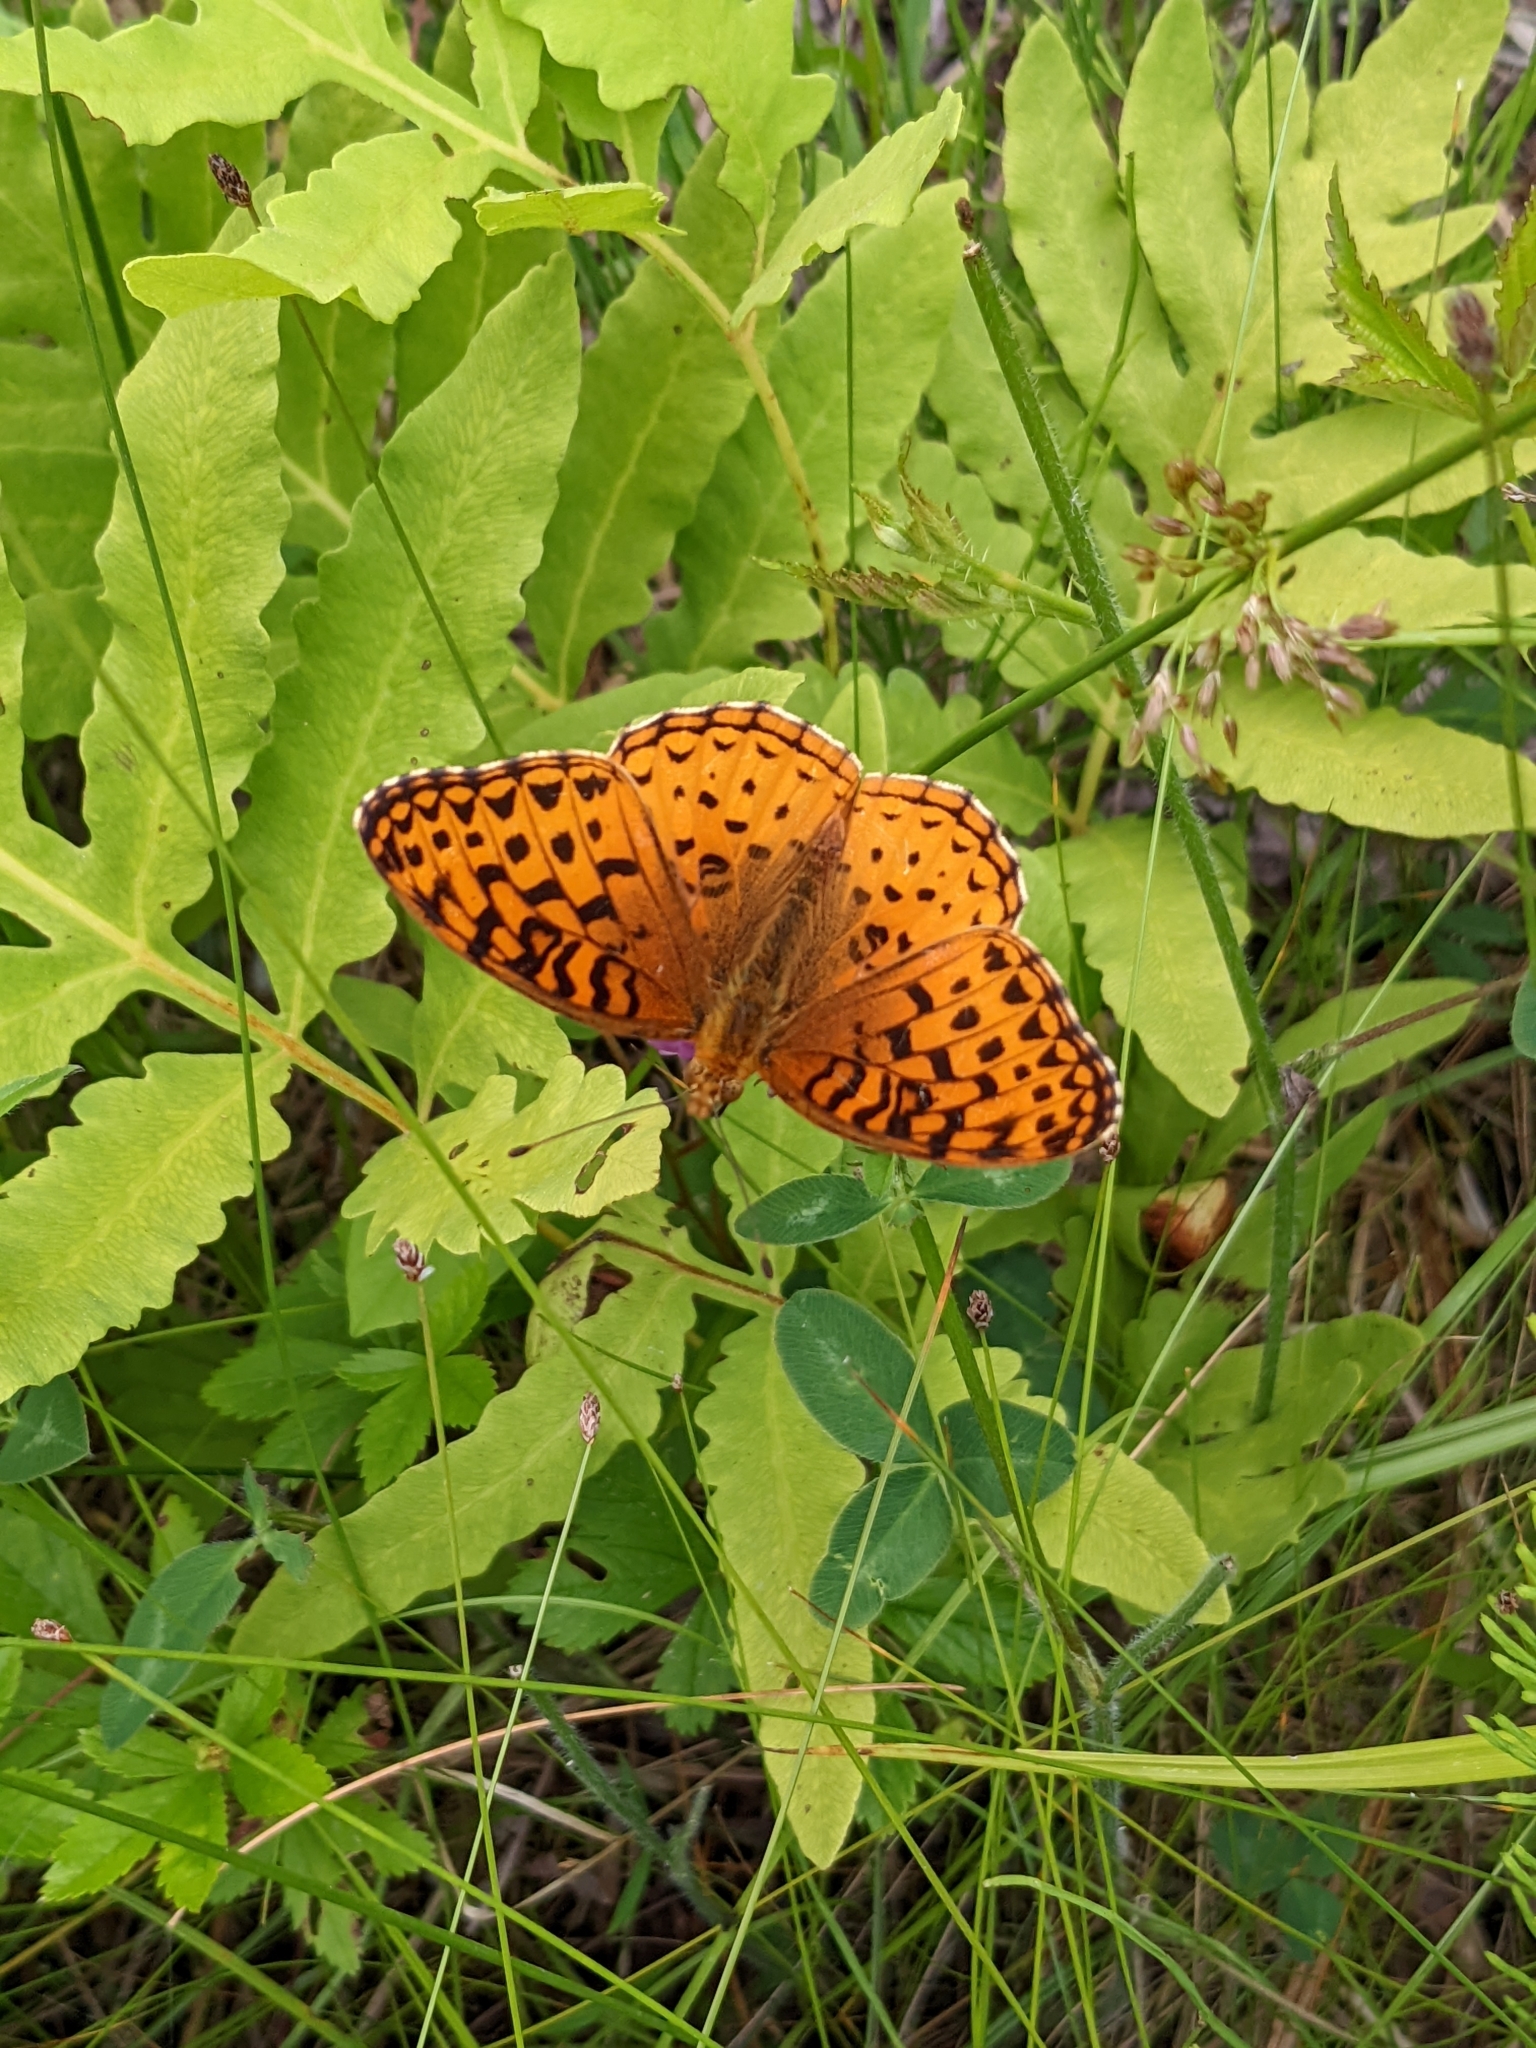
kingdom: Animalia
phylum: Arthropoda
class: Insecta
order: Lepidoptera
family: Nymphalidae
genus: Speyeria
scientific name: Speyeria aphrodite
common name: Aphrodite friitllary
